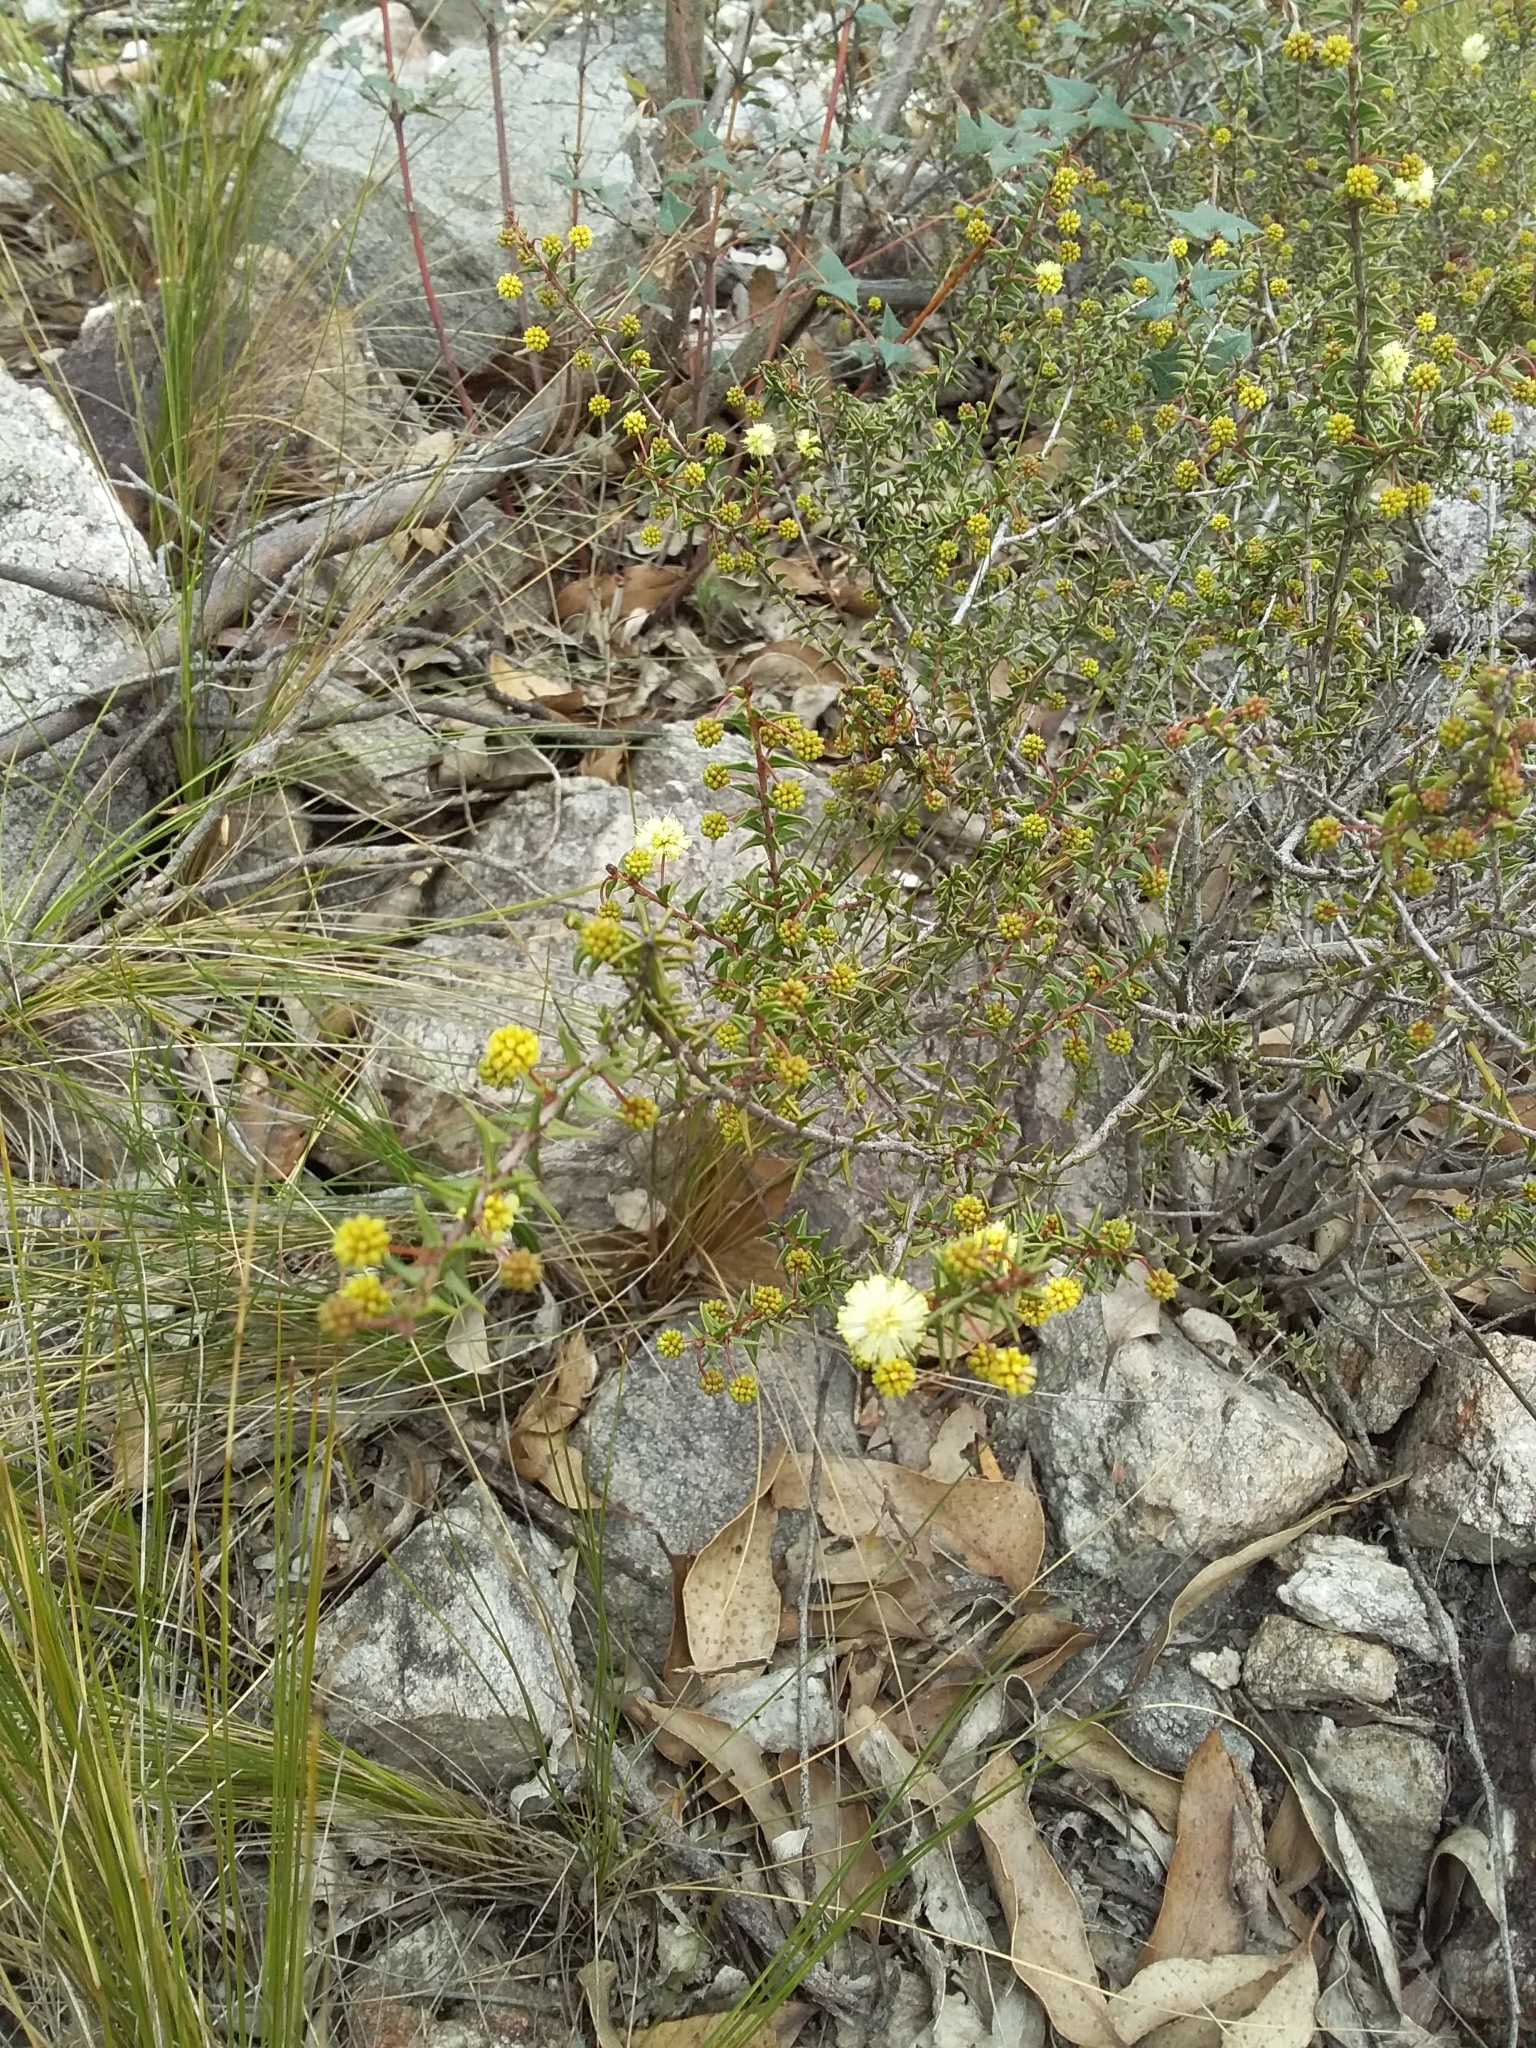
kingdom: Plantae
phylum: Tracheophyta
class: Magnoliopsida
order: Fabales
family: Fabaceae
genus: Acacia
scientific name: Acacia gunnii
